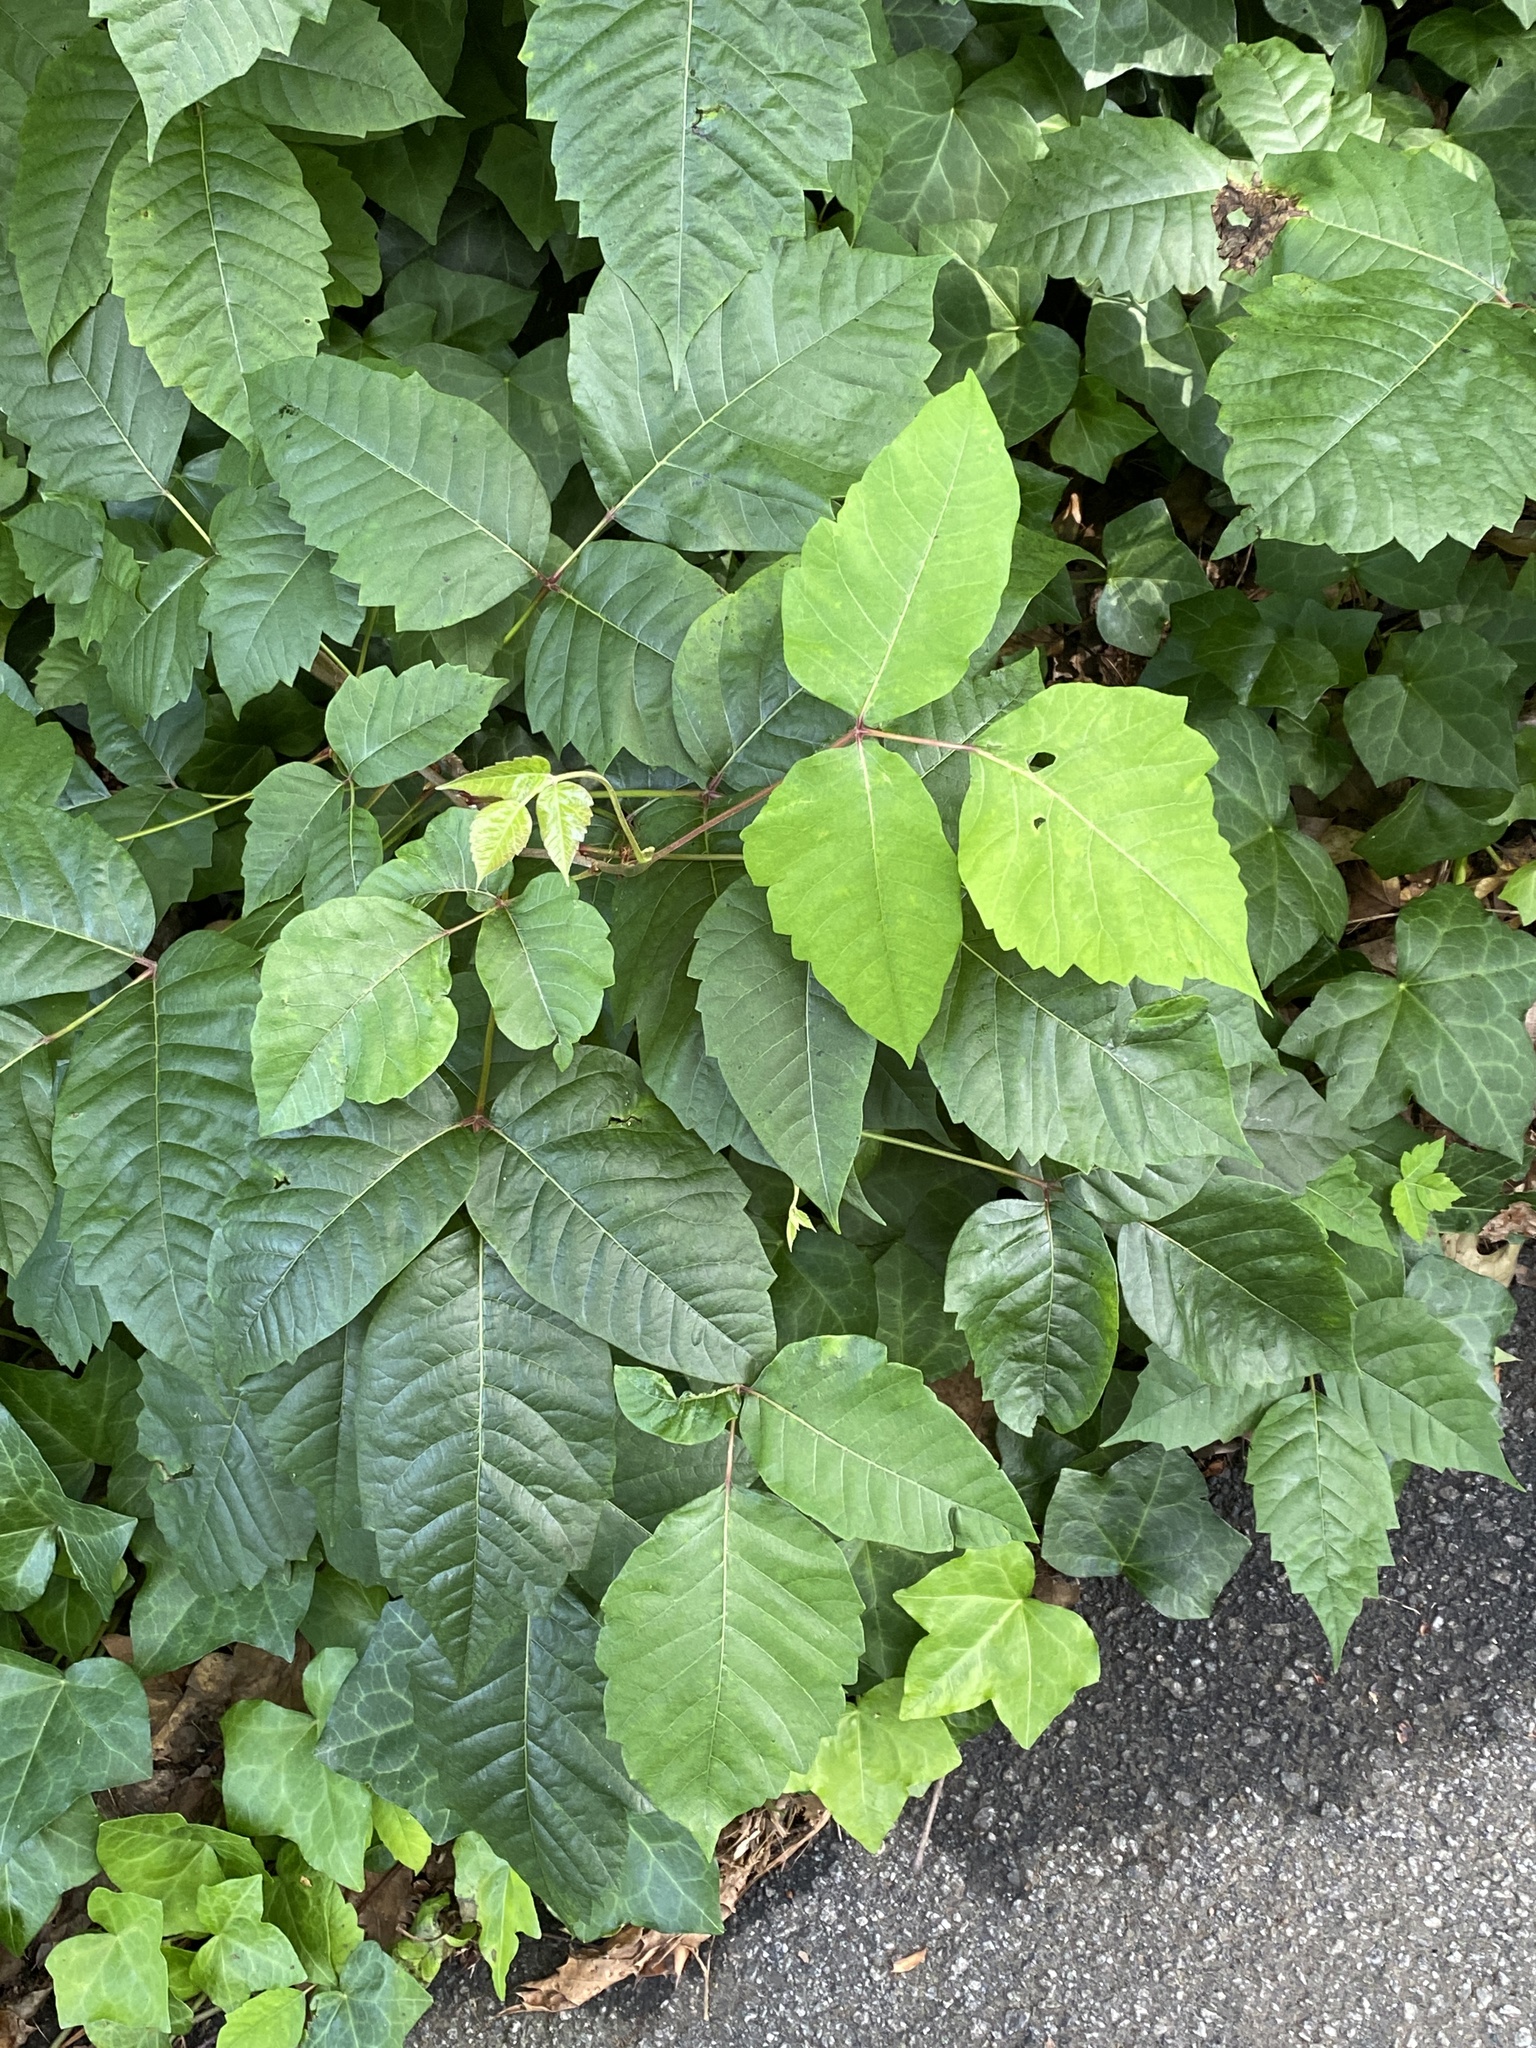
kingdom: Plantae
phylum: Tracheophyta
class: Magnoliopsida
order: Sapindales
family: Anacardiaceae
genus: Toxicodendron
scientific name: Toxicodendron radicans
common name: Poison ivy
